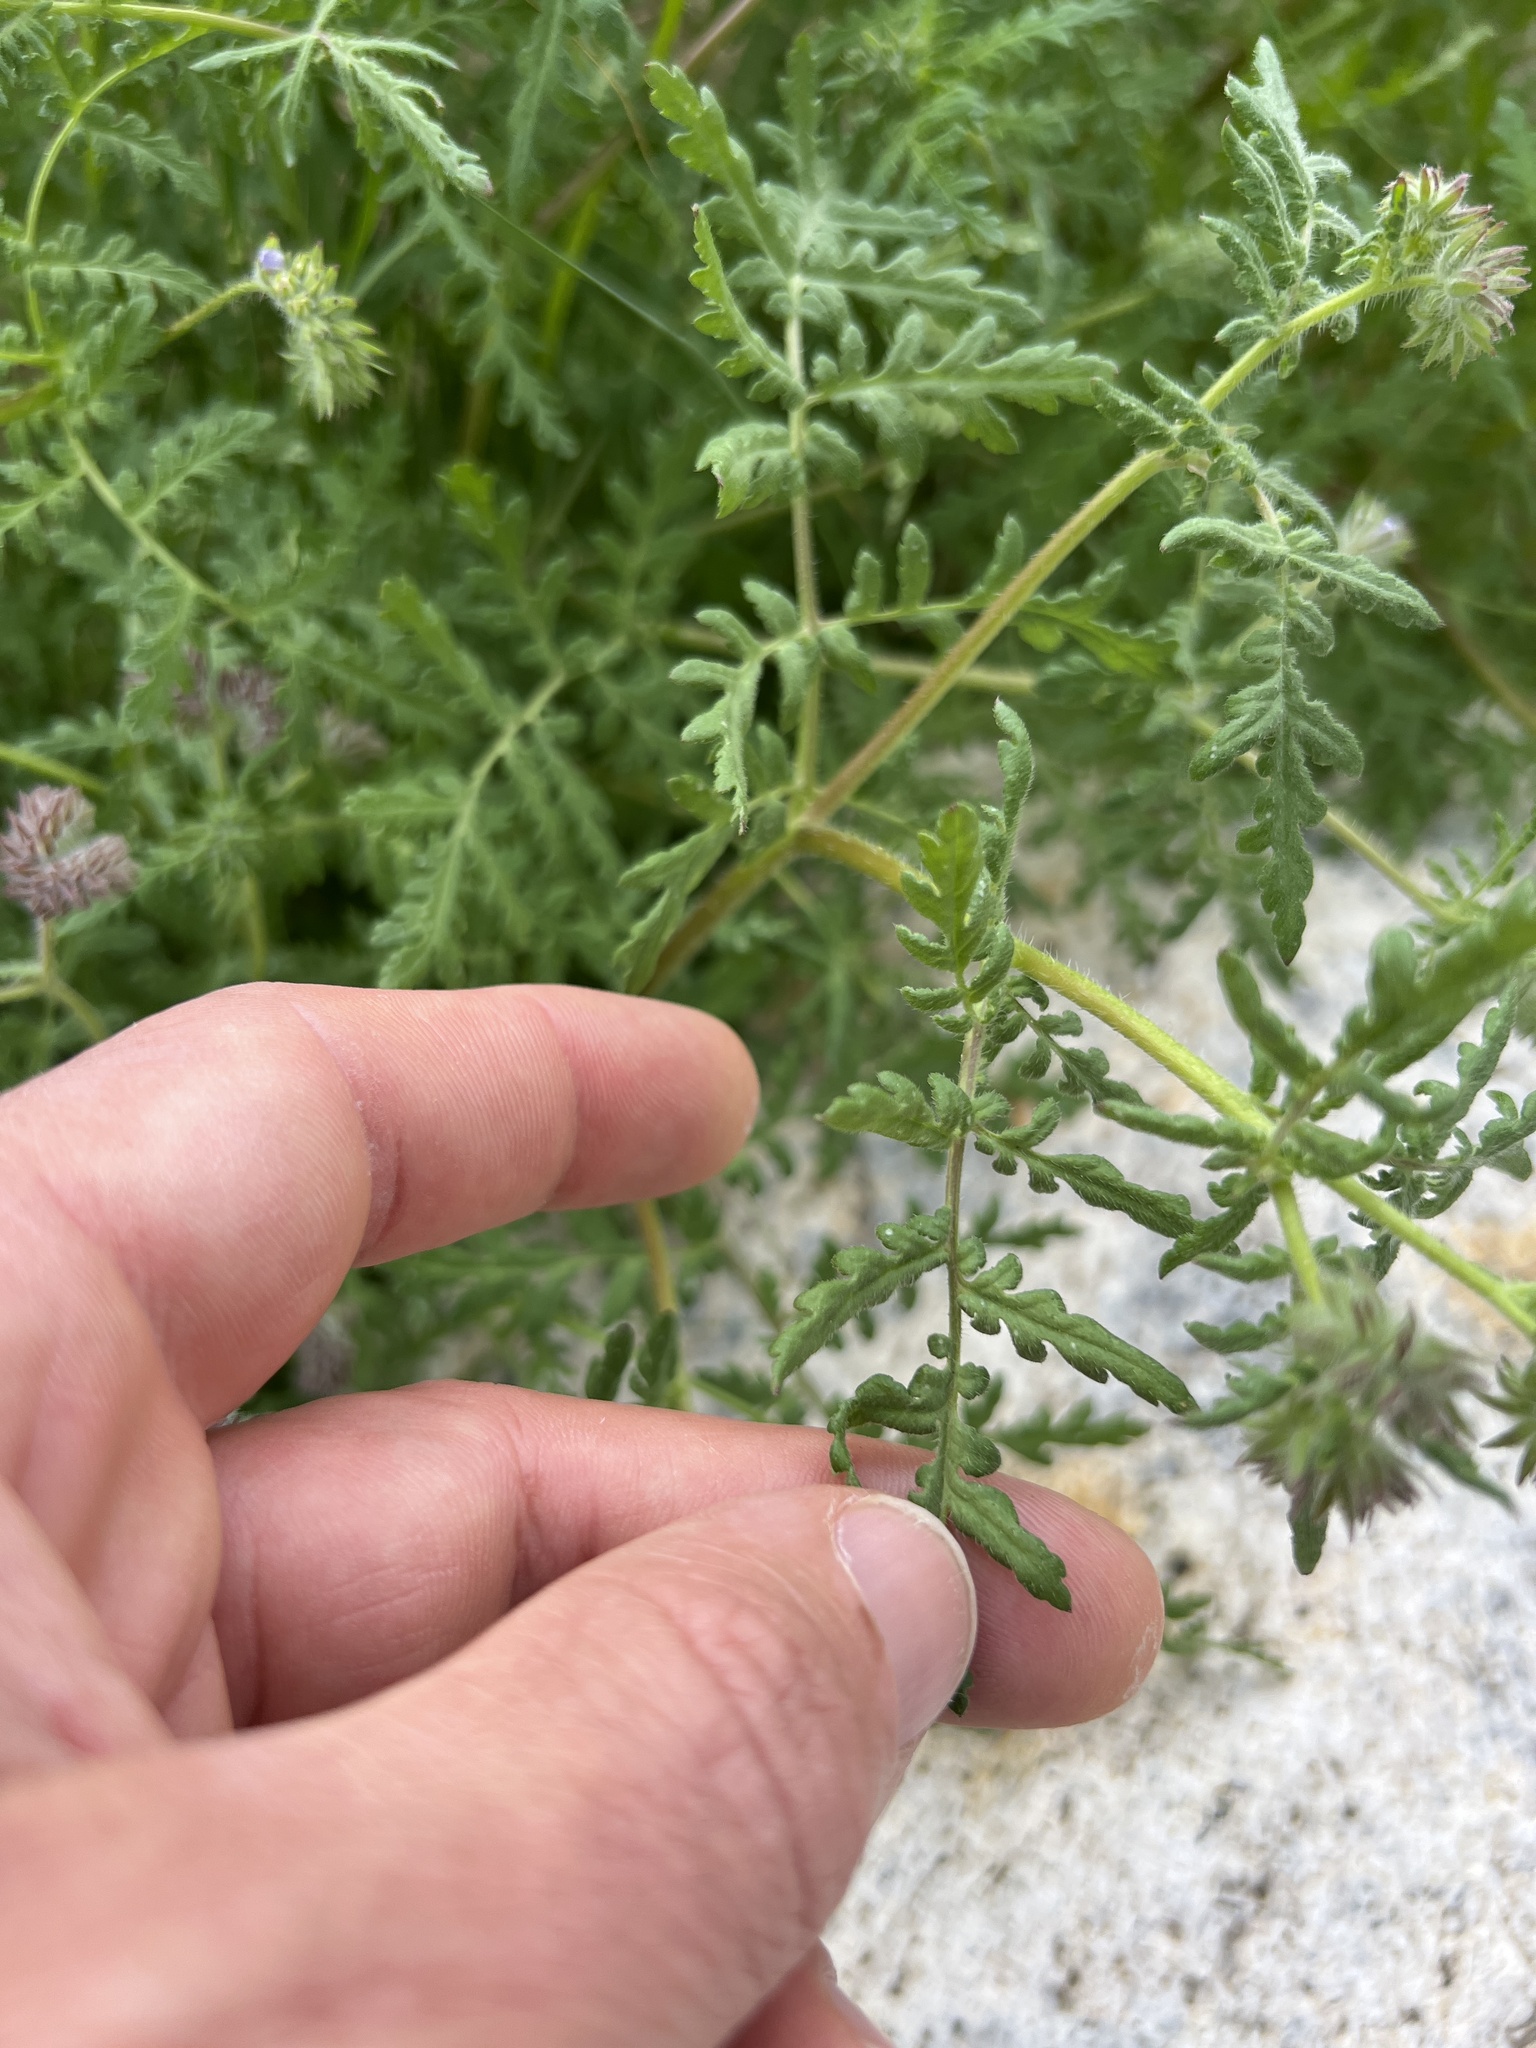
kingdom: Plantae
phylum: Tracheophyta
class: Magnoliopsida
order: Boraginales
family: Hydrophyllaceae
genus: Phacelia
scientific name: Phacelia distans
